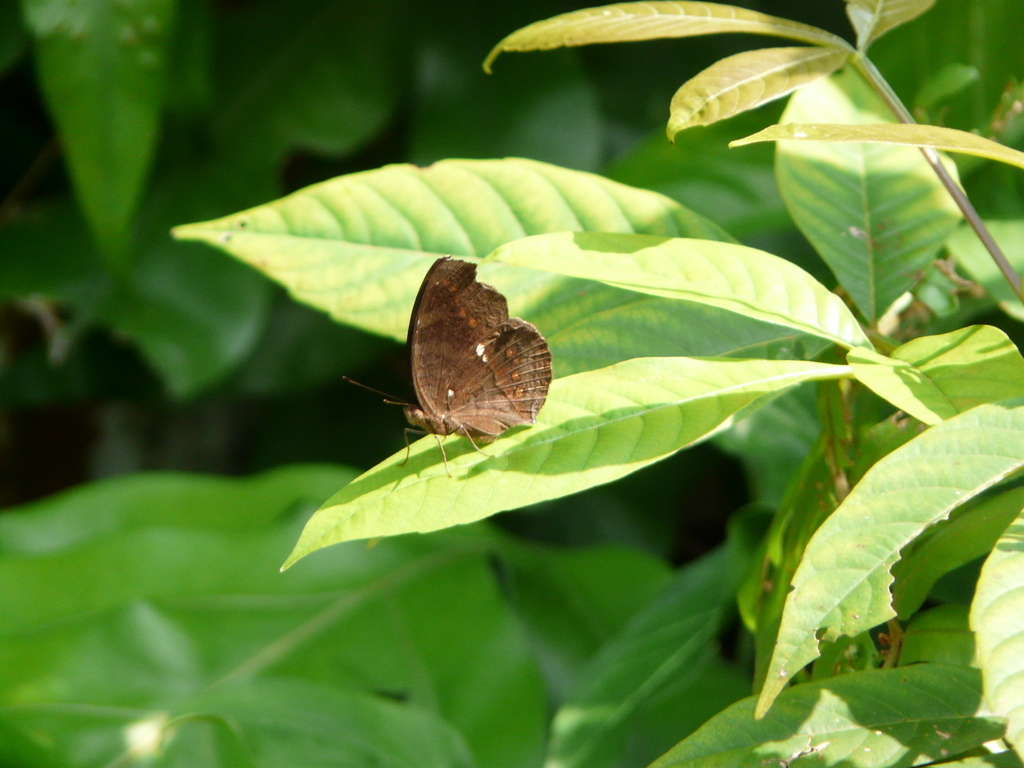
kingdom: Animalia
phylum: Arthropoda
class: Insecta
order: Lepidoptera
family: Nymphalidae
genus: Junonia
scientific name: Junonia hedonia
